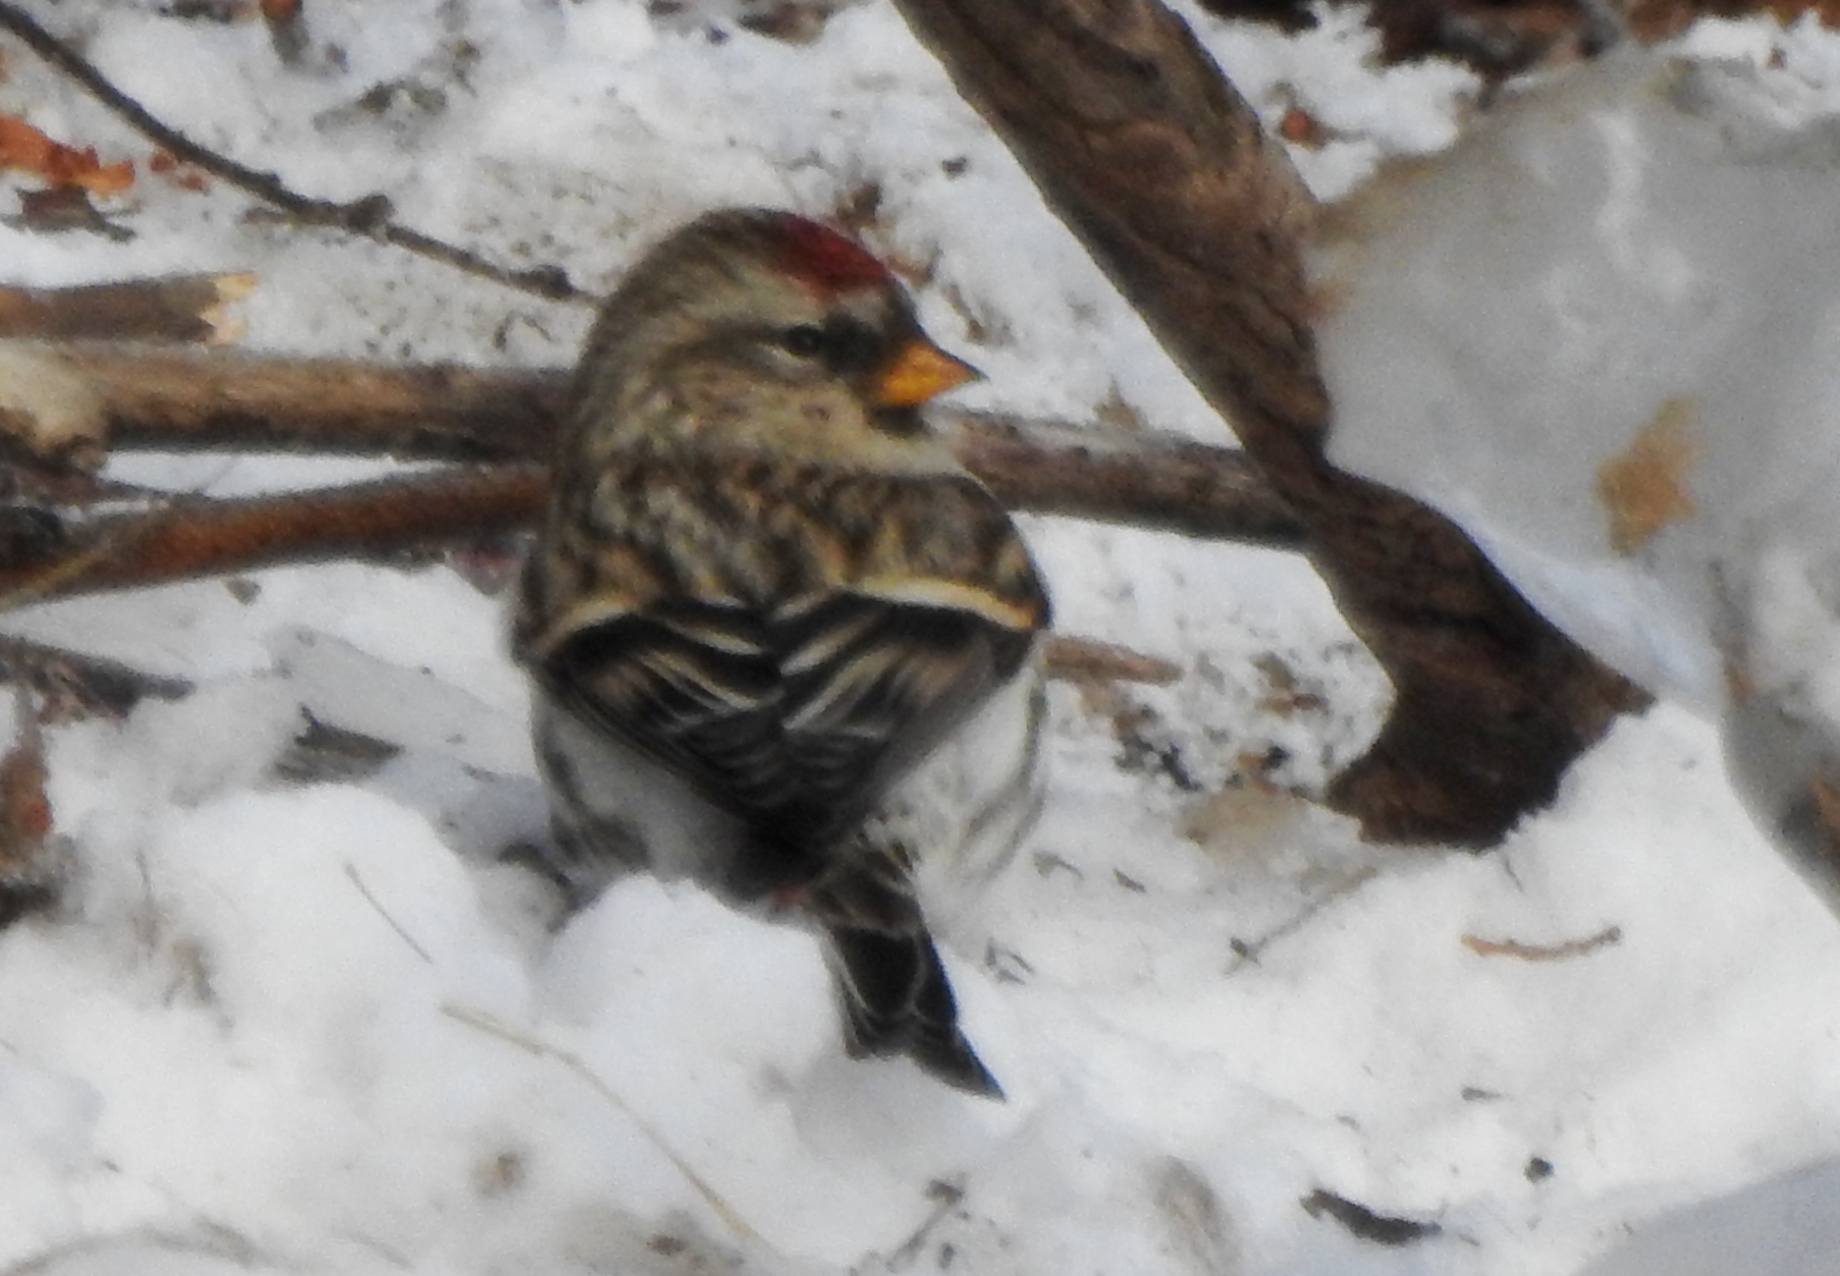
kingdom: Animalia
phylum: Chordata
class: Aves
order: Passeriformes
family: Fringillidae
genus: Acanthis
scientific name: Acanthis flammea
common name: Common redpoll
